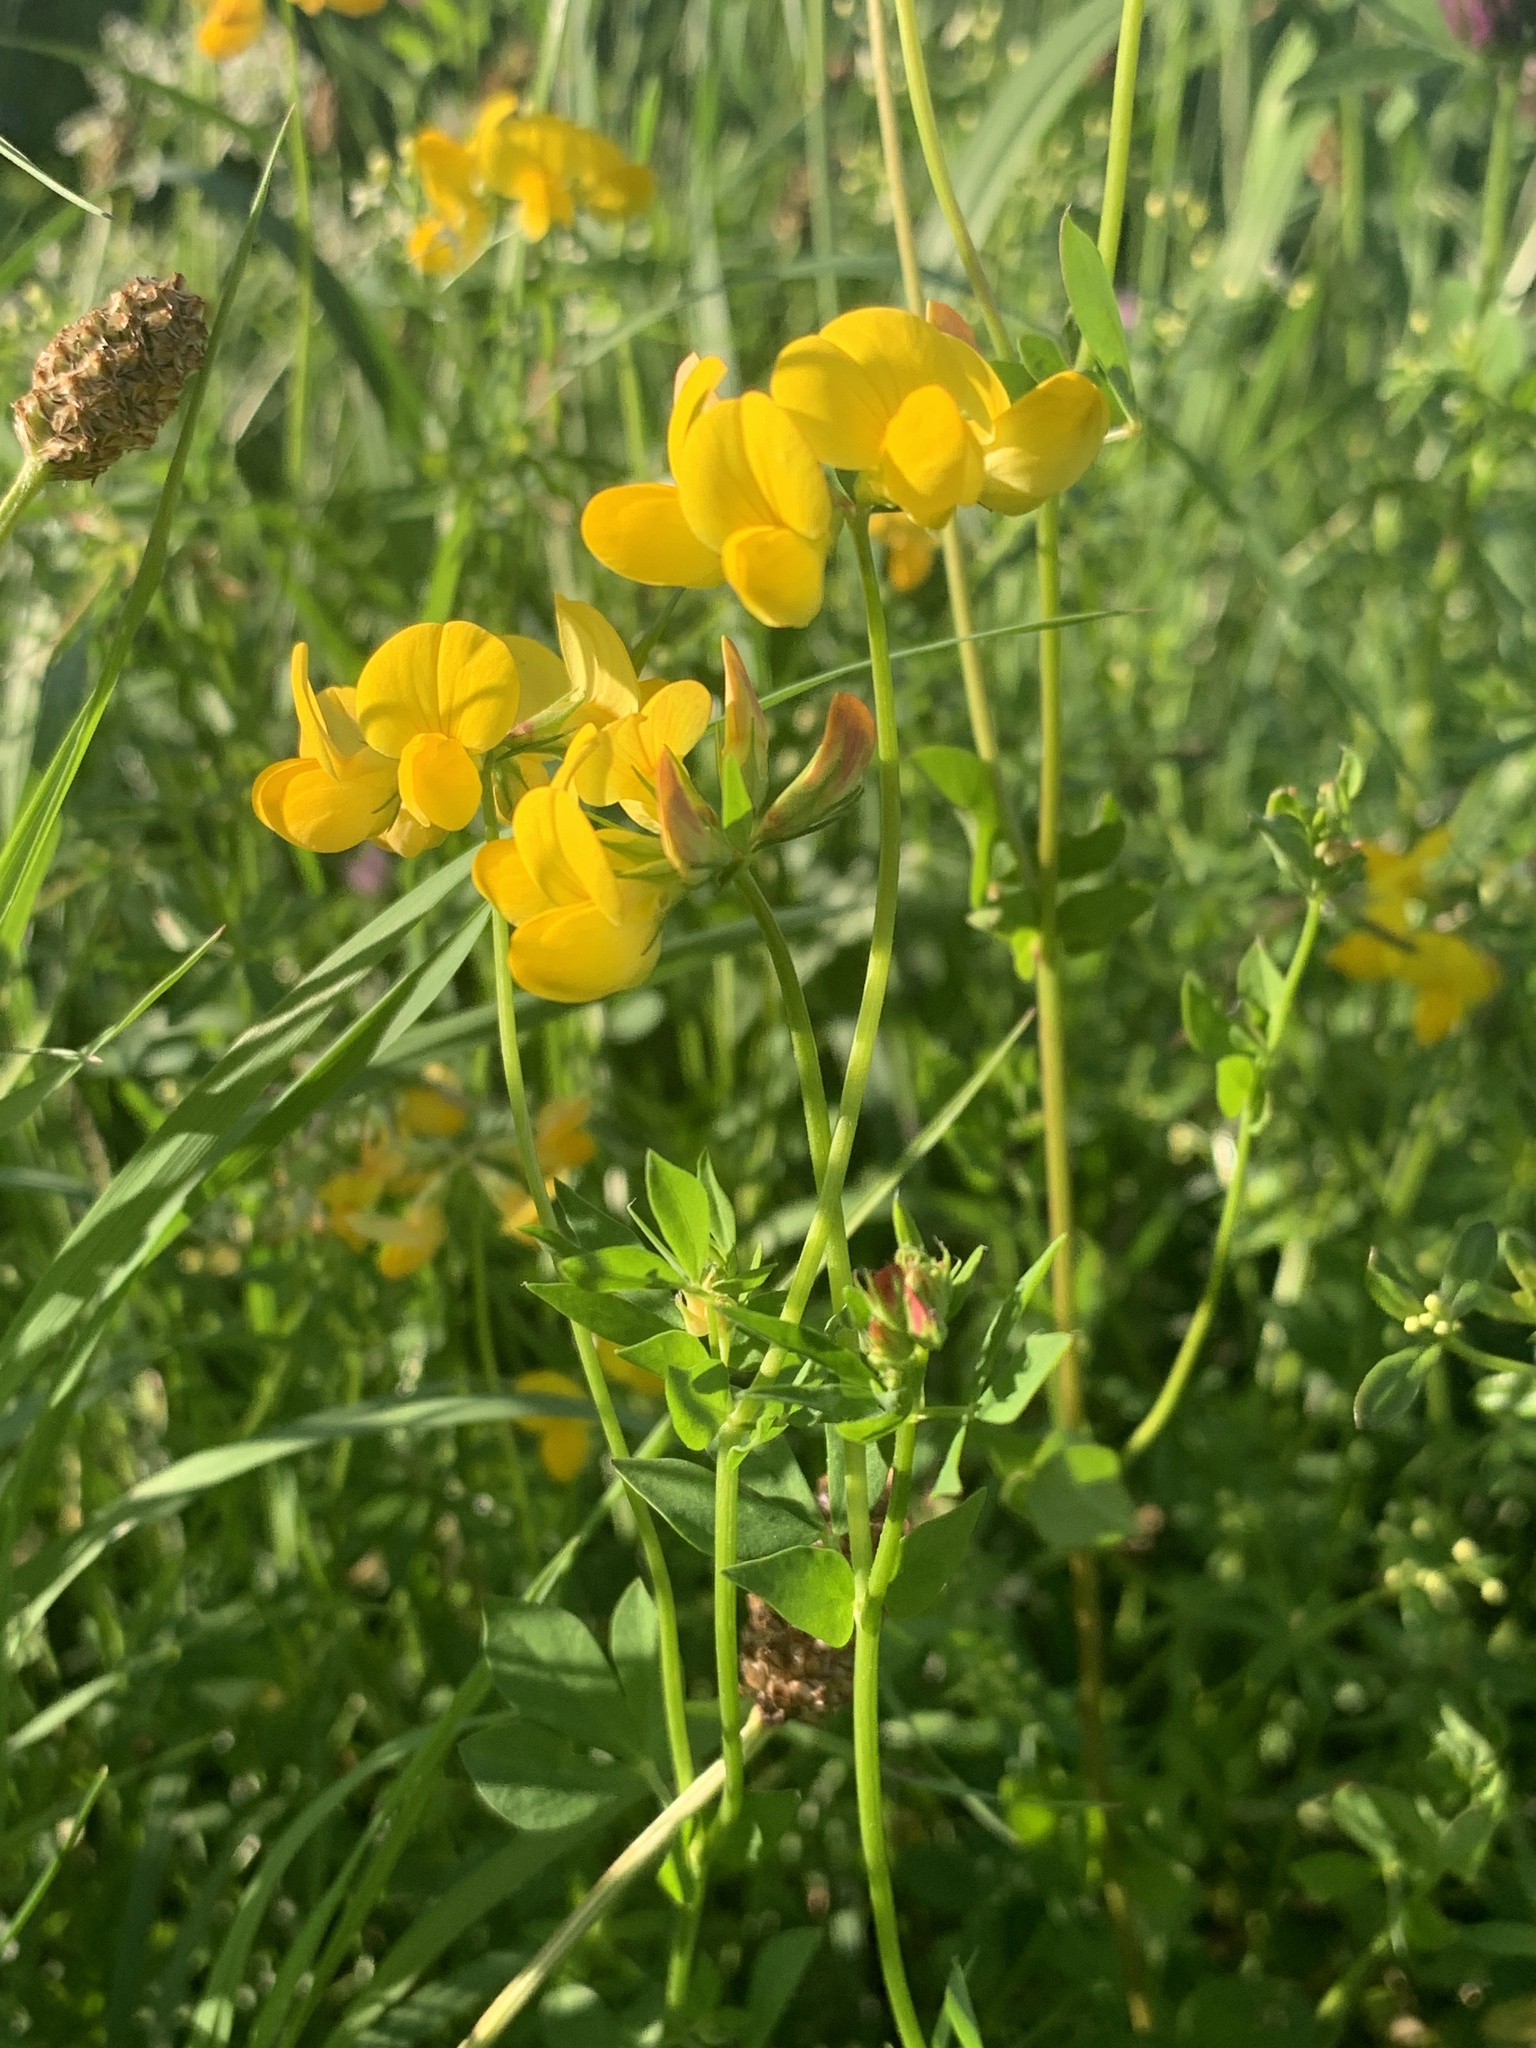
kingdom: Plantae
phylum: Tracheophyta
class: Magnoliopsida
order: Fabales
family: Fabaceae
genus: Lotus
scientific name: Lotus corniculatus
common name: Common bird's-foot-trefoil
